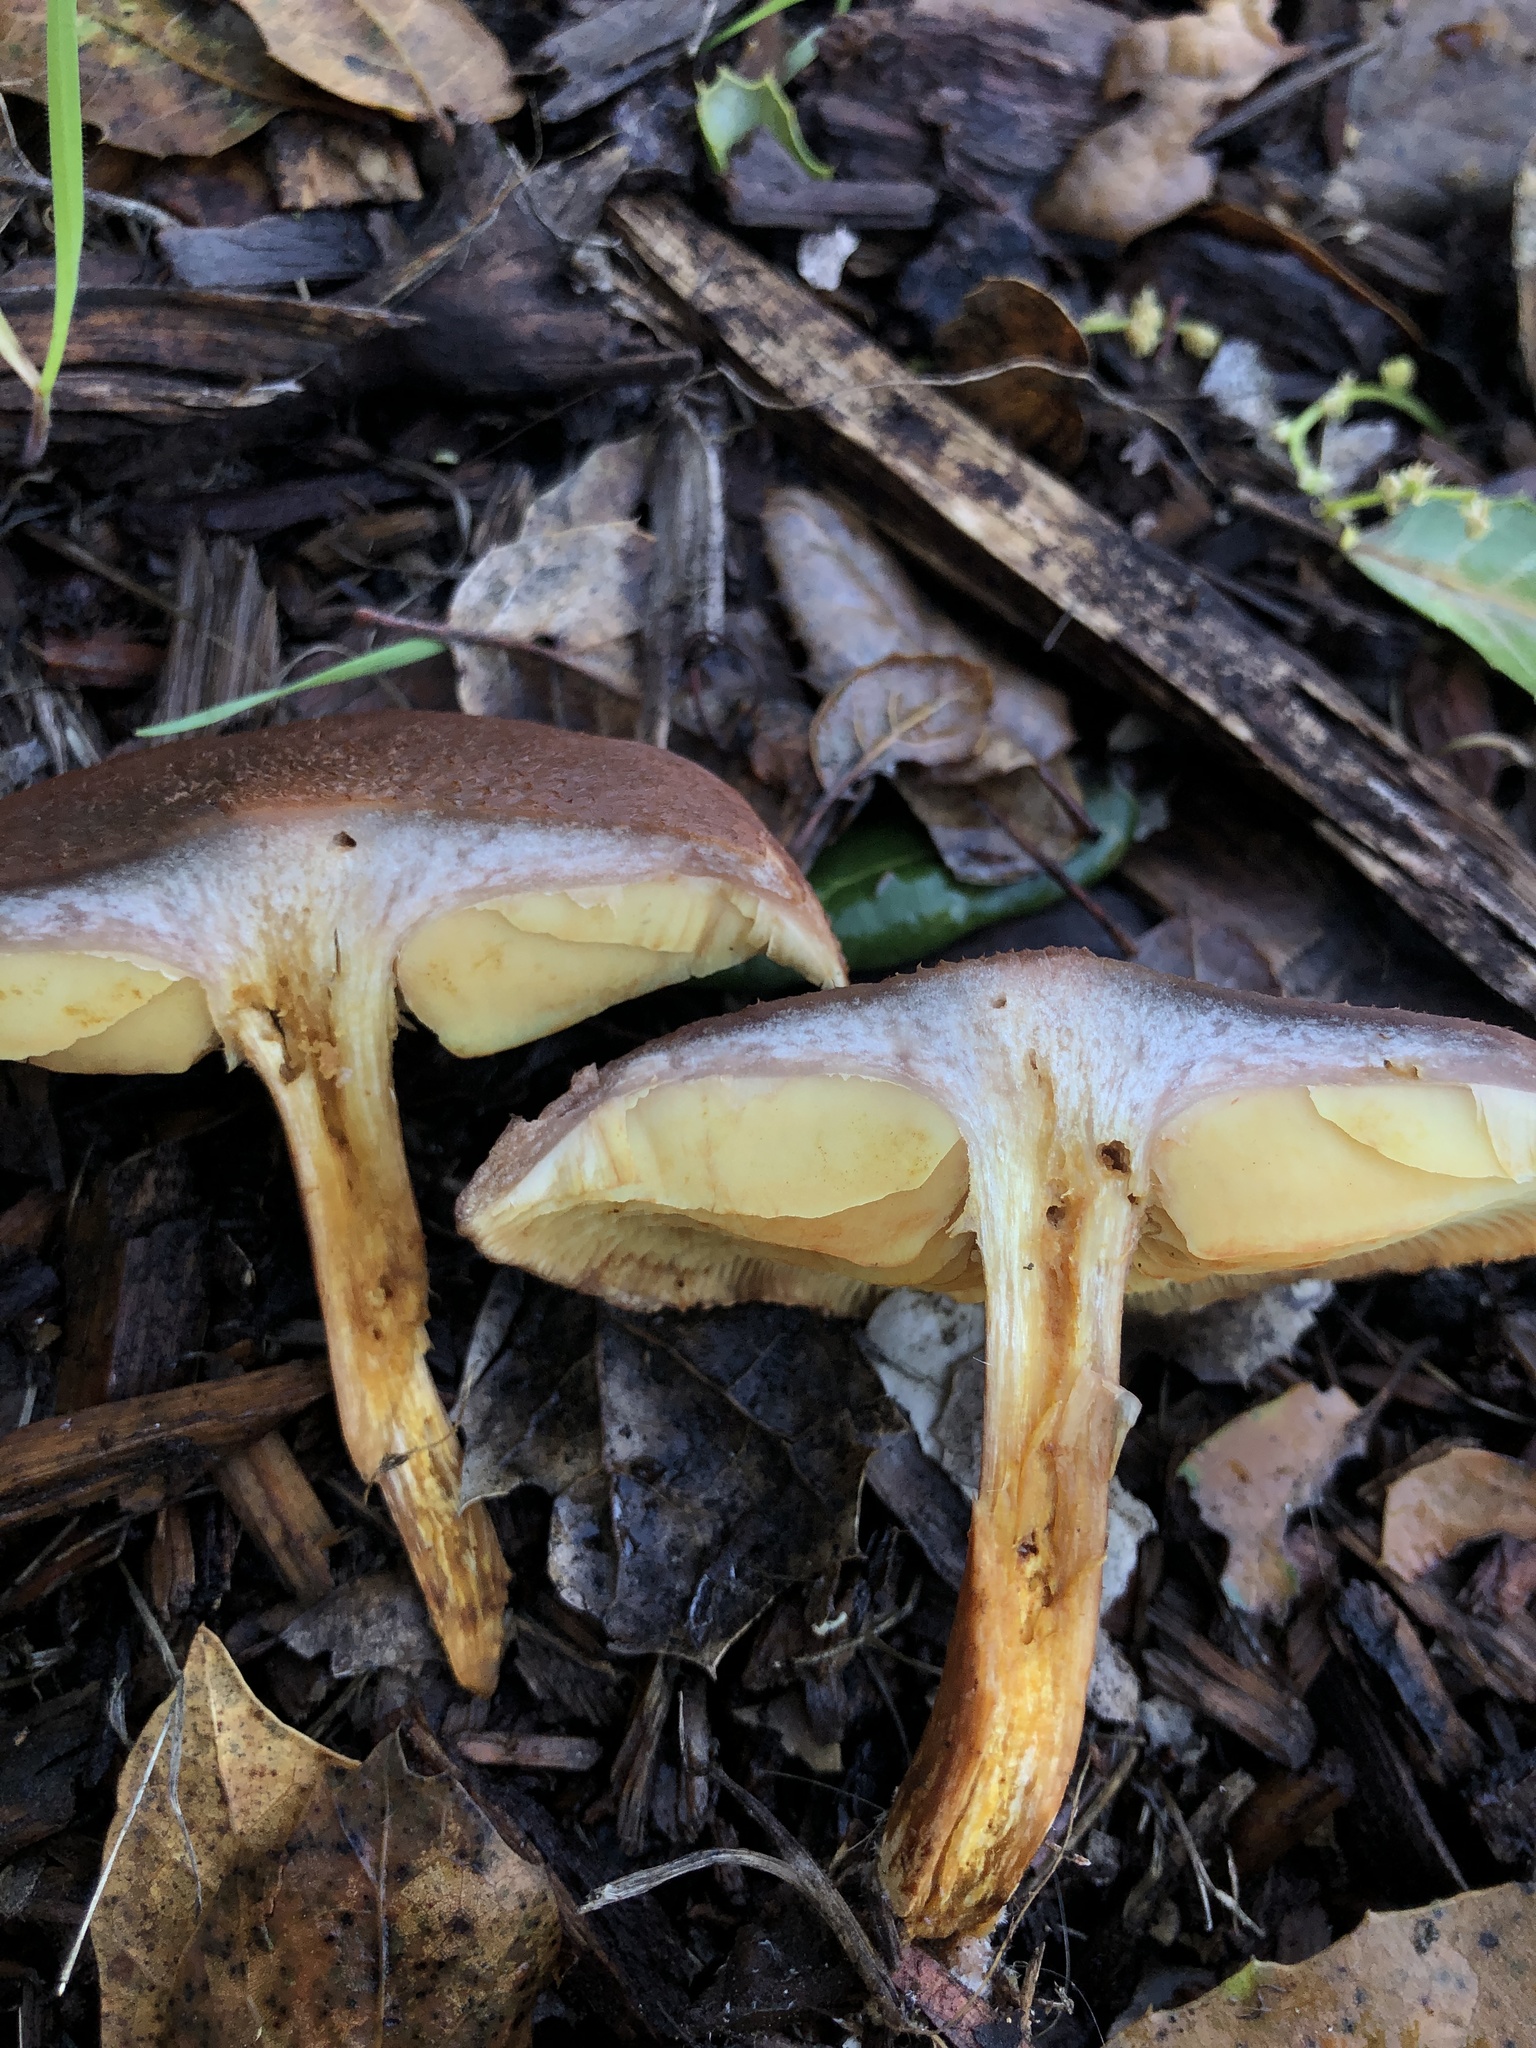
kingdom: Fungi
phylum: Basidiomycota
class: Agaricomycetes
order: Agaricales
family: Hymenogastraceae
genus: Gymnopilus
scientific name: Gymnopilus luteofolius
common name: Yellow-gilled gymnopilus
